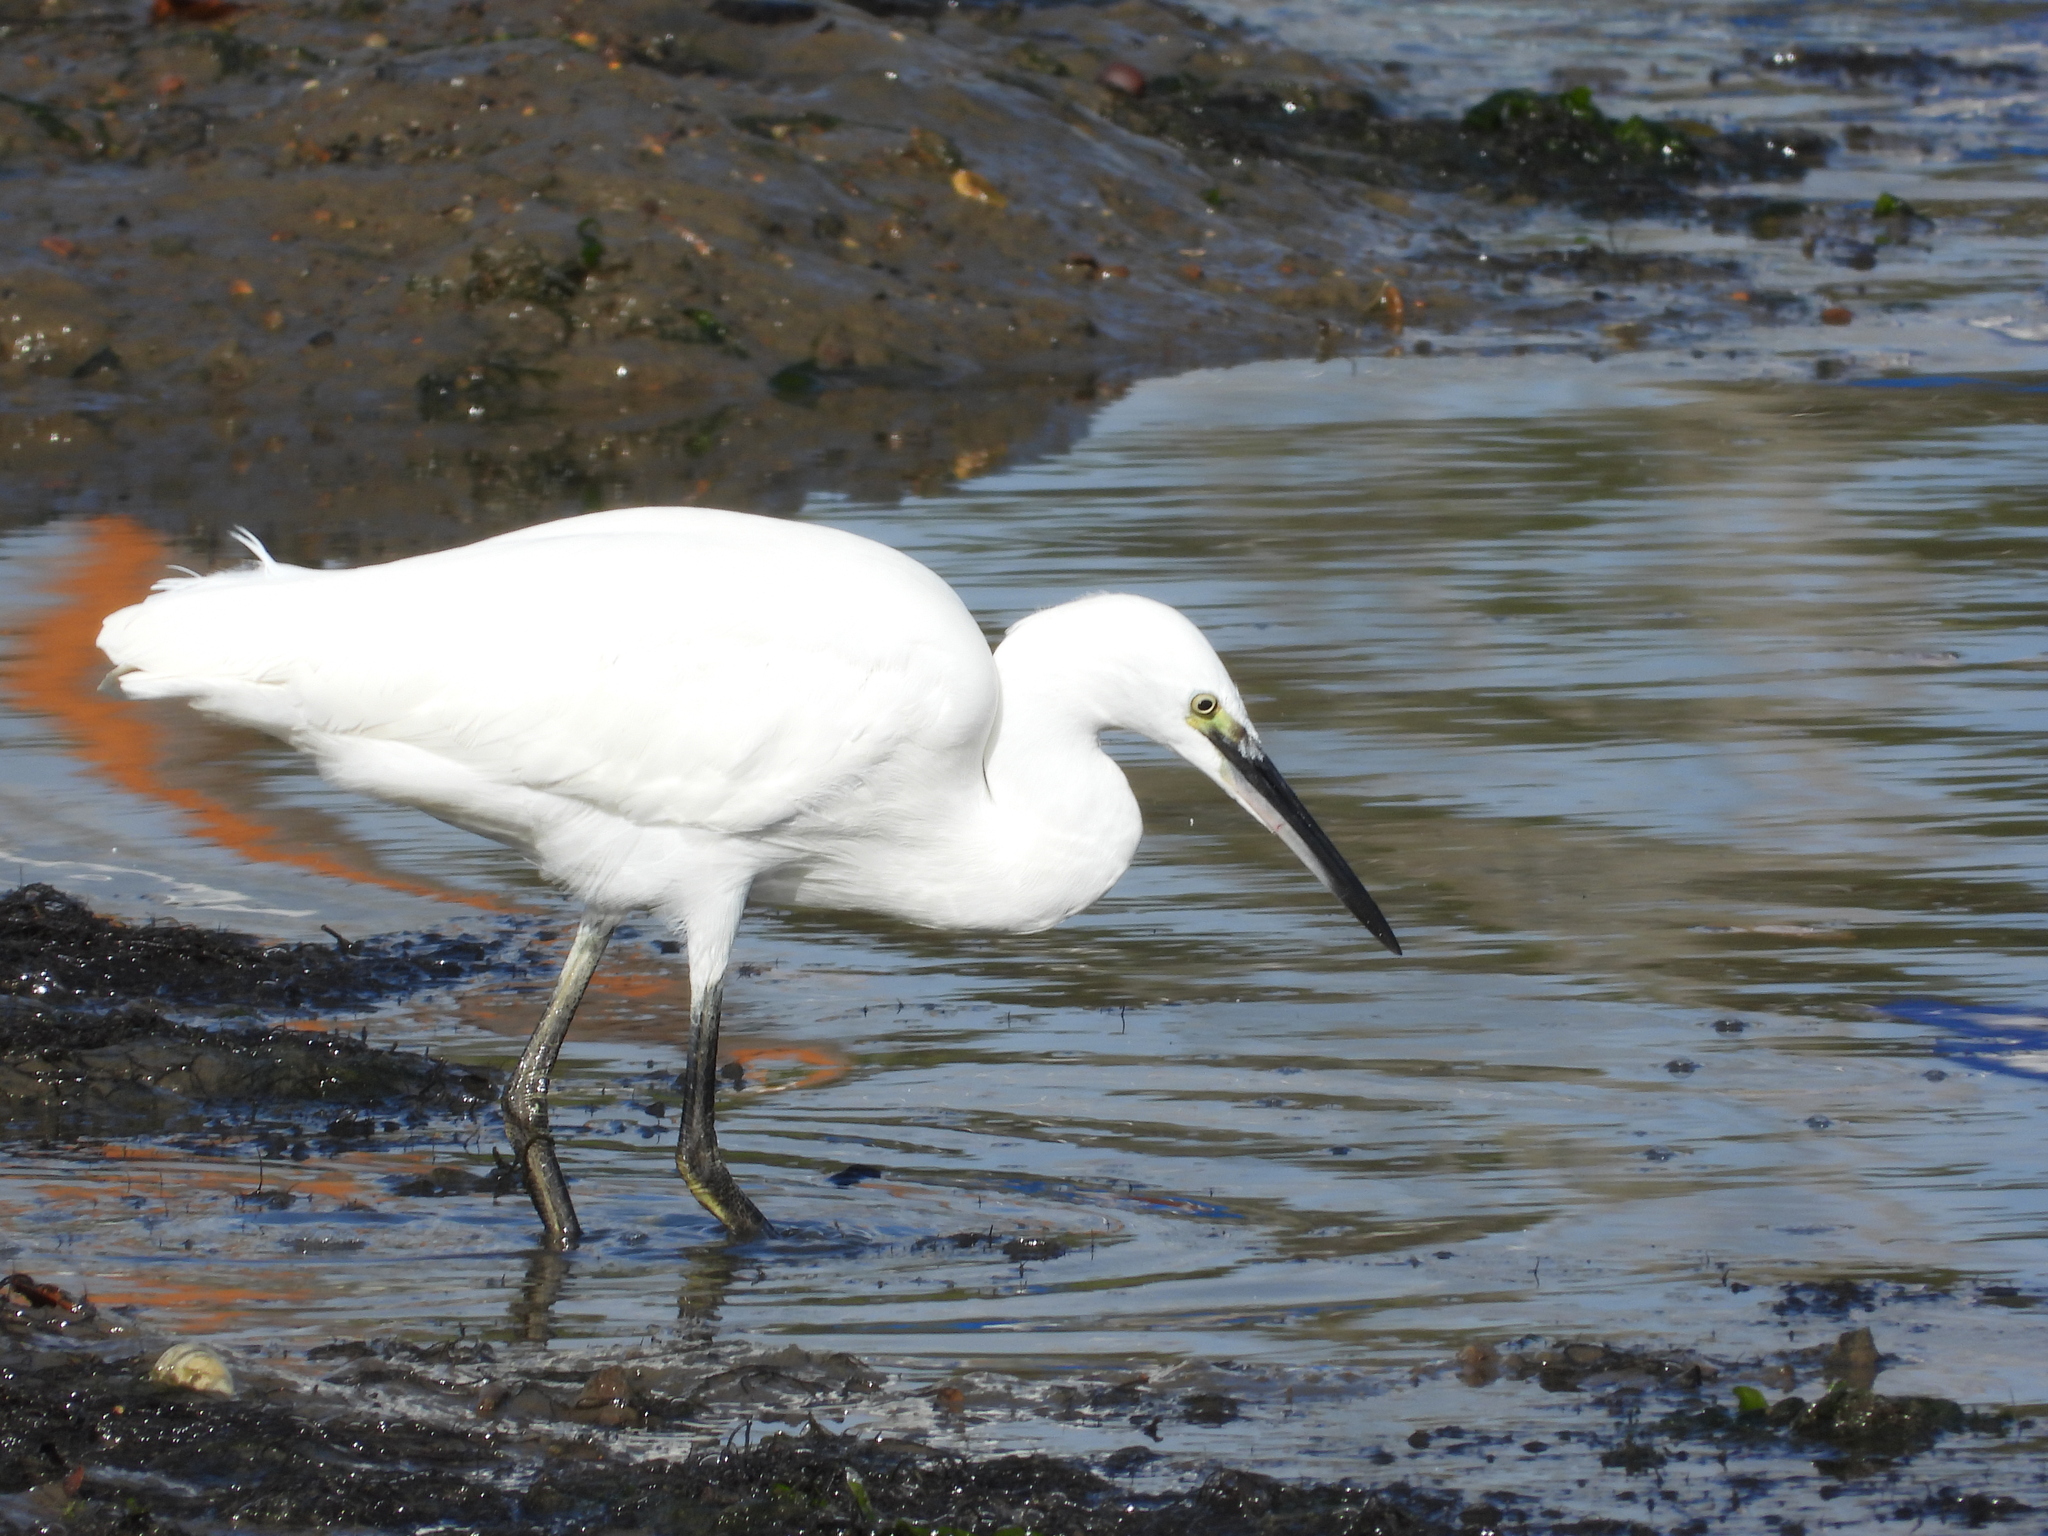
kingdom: Animalia
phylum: Chordata
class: Aves
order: Pelecaniformes
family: Ardeidae
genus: Egretta
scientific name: Egretta garzetta
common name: Little egret
